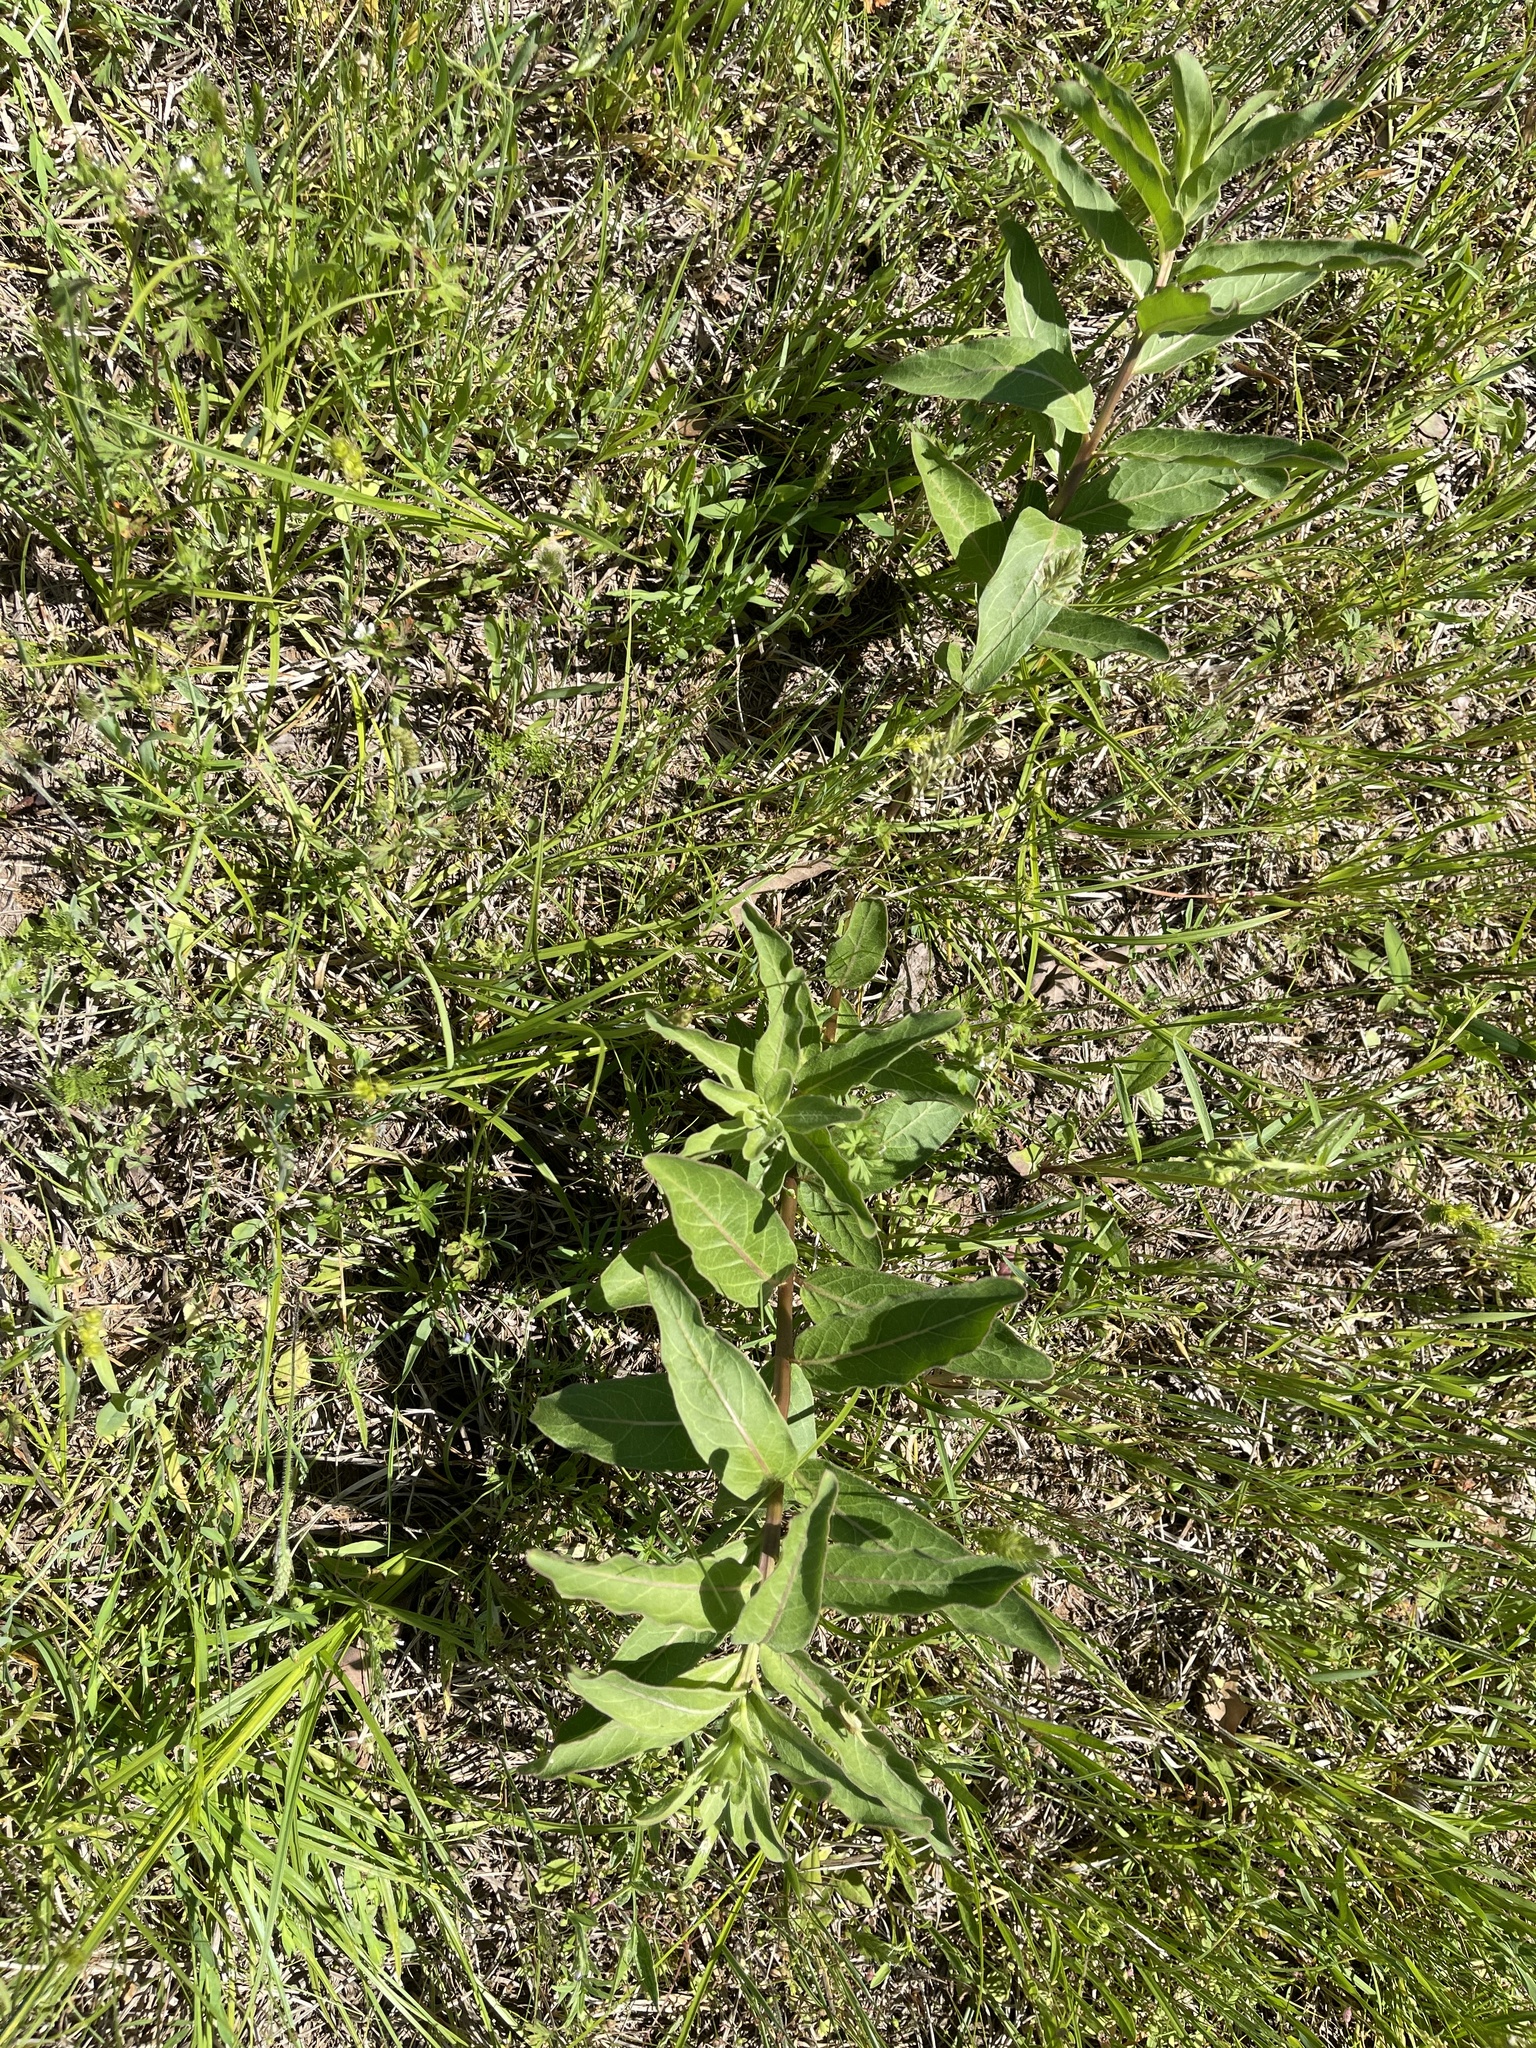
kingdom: Plantae
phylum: Tracheophyta
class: Magnoliopsida
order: Gentianales
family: Apocynaceae
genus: Asclepias
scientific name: Asclepias viridis
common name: Antelope-horns
